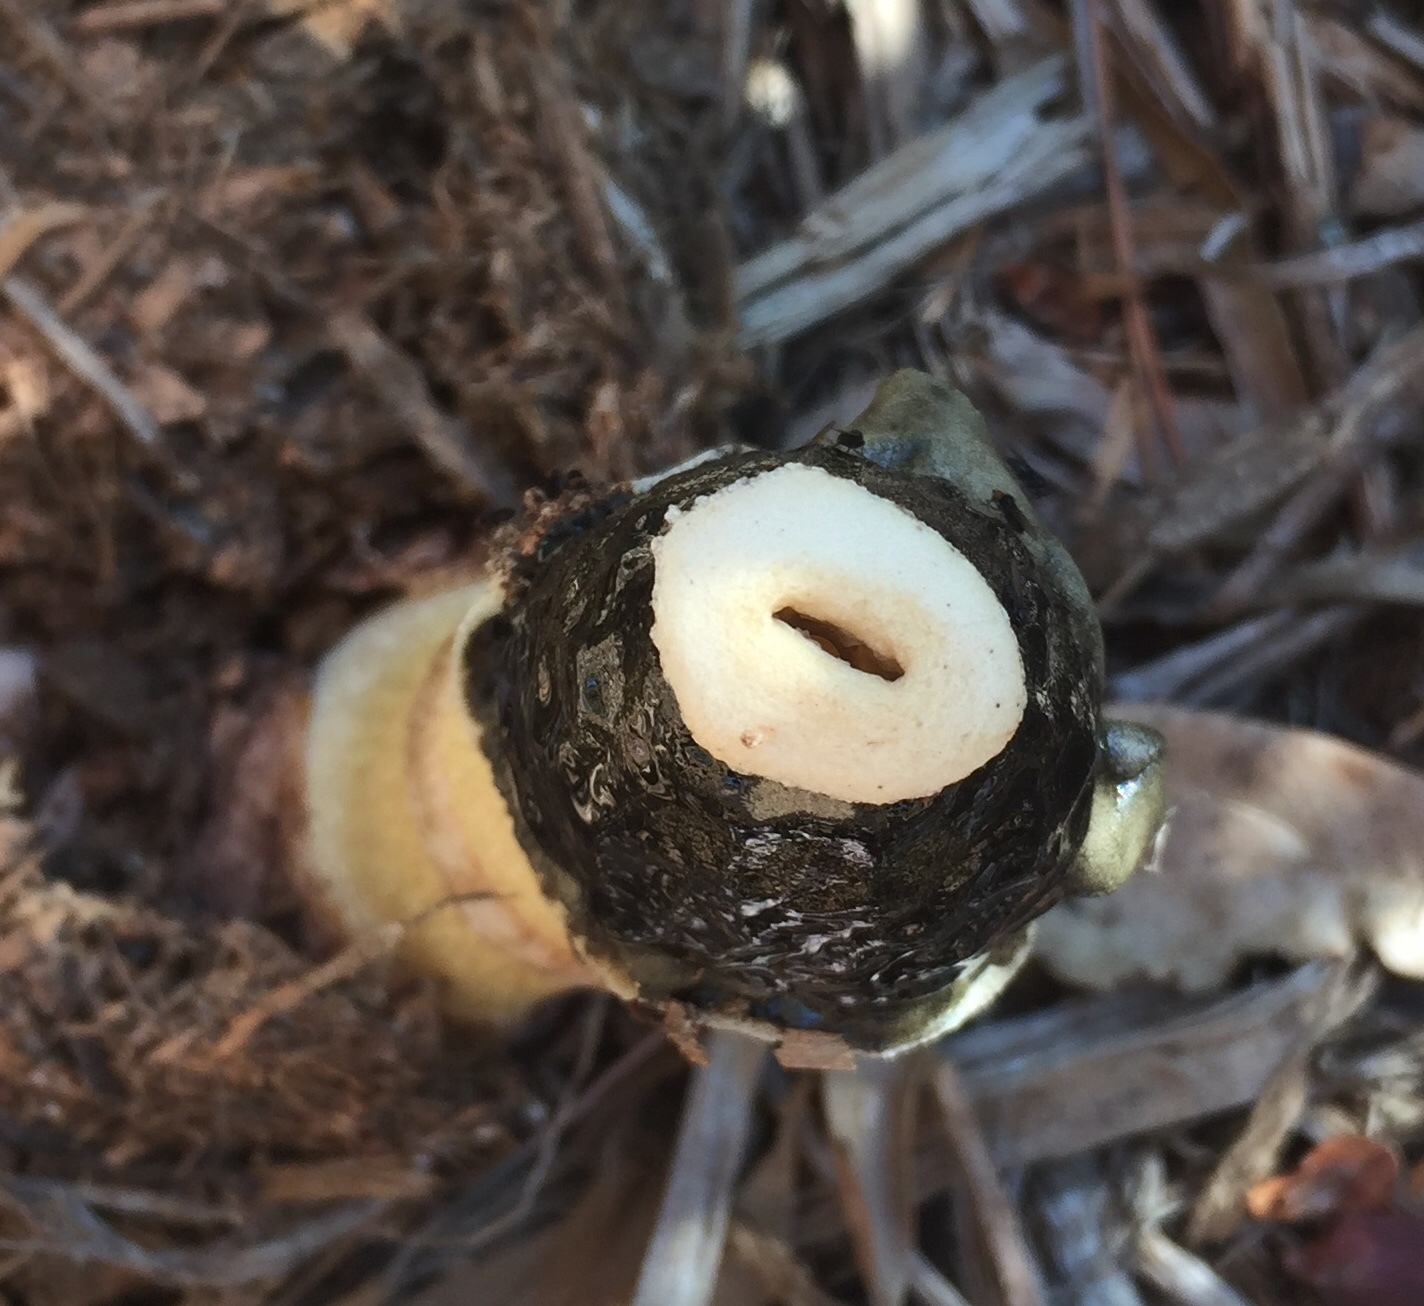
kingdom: Fungi
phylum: Basidiomycota
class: Agaricomycetes
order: Phallales
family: Phallaceae
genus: Phallus
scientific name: Phallus ravenelii
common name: Ravenel's stinkhorn
